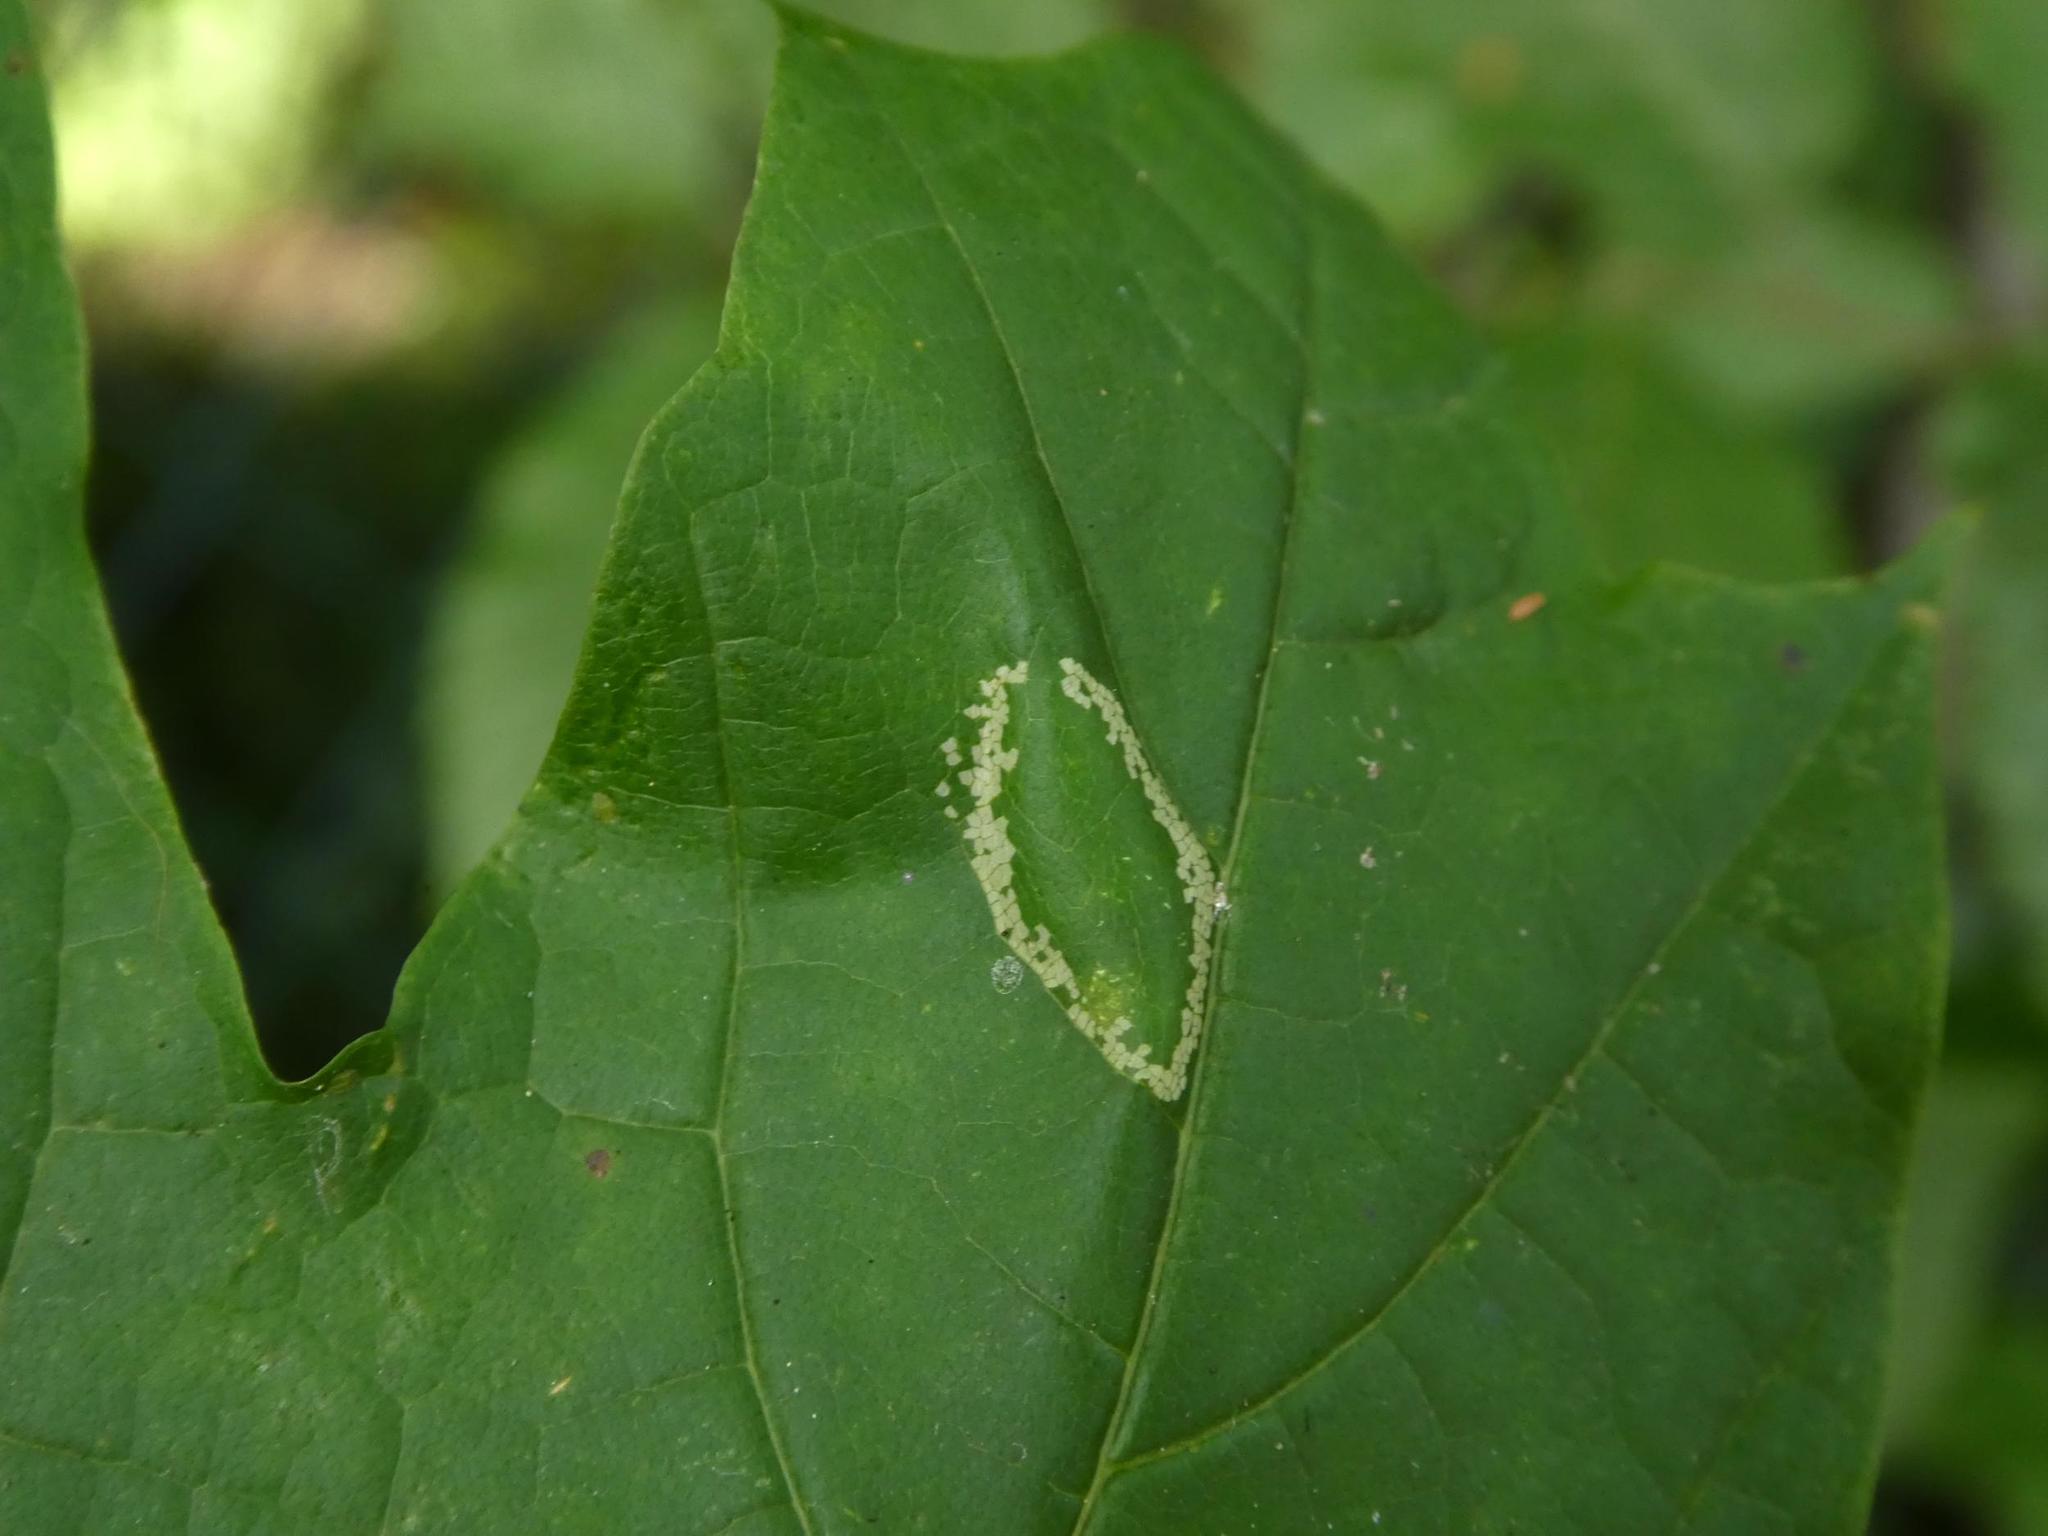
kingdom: Animalia
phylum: Arthropoda
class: Insecta
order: Lepidoptera
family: Gracillariidae
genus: Phyllonorycter
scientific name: Phyllonorycter joannisi
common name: White-bodied midget
